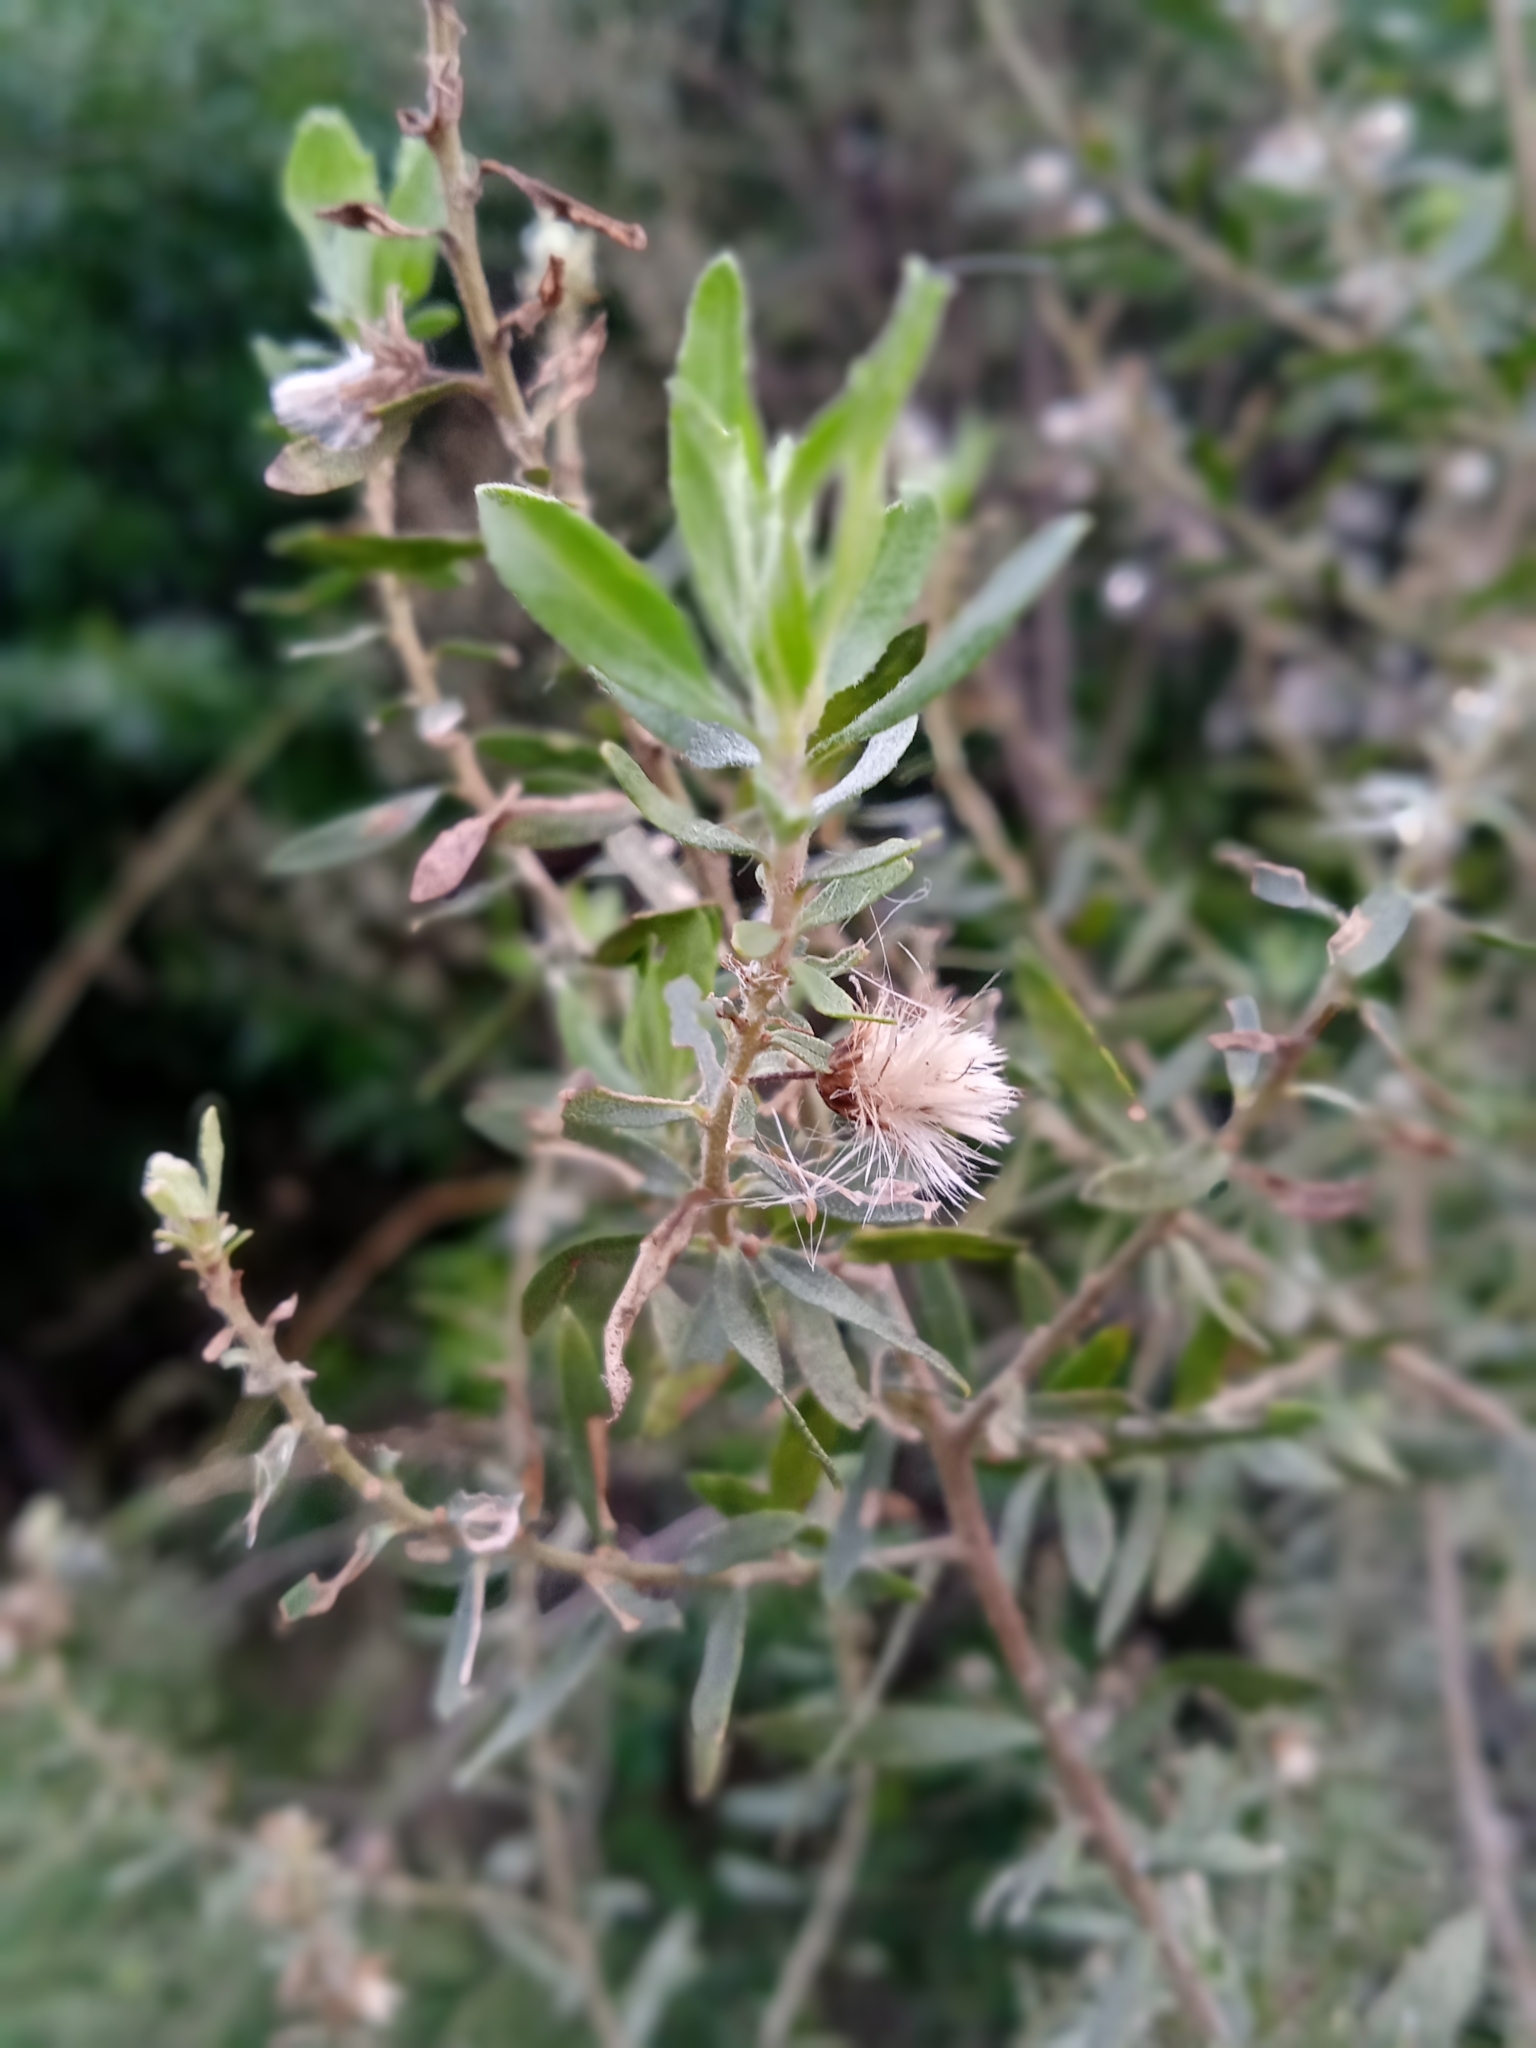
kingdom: Plantae
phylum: Tracheophyta
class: Magnoliopsida
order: Asterales
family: Asteraceae
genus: Baccharis
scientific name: Baccharis dracunculifolia
